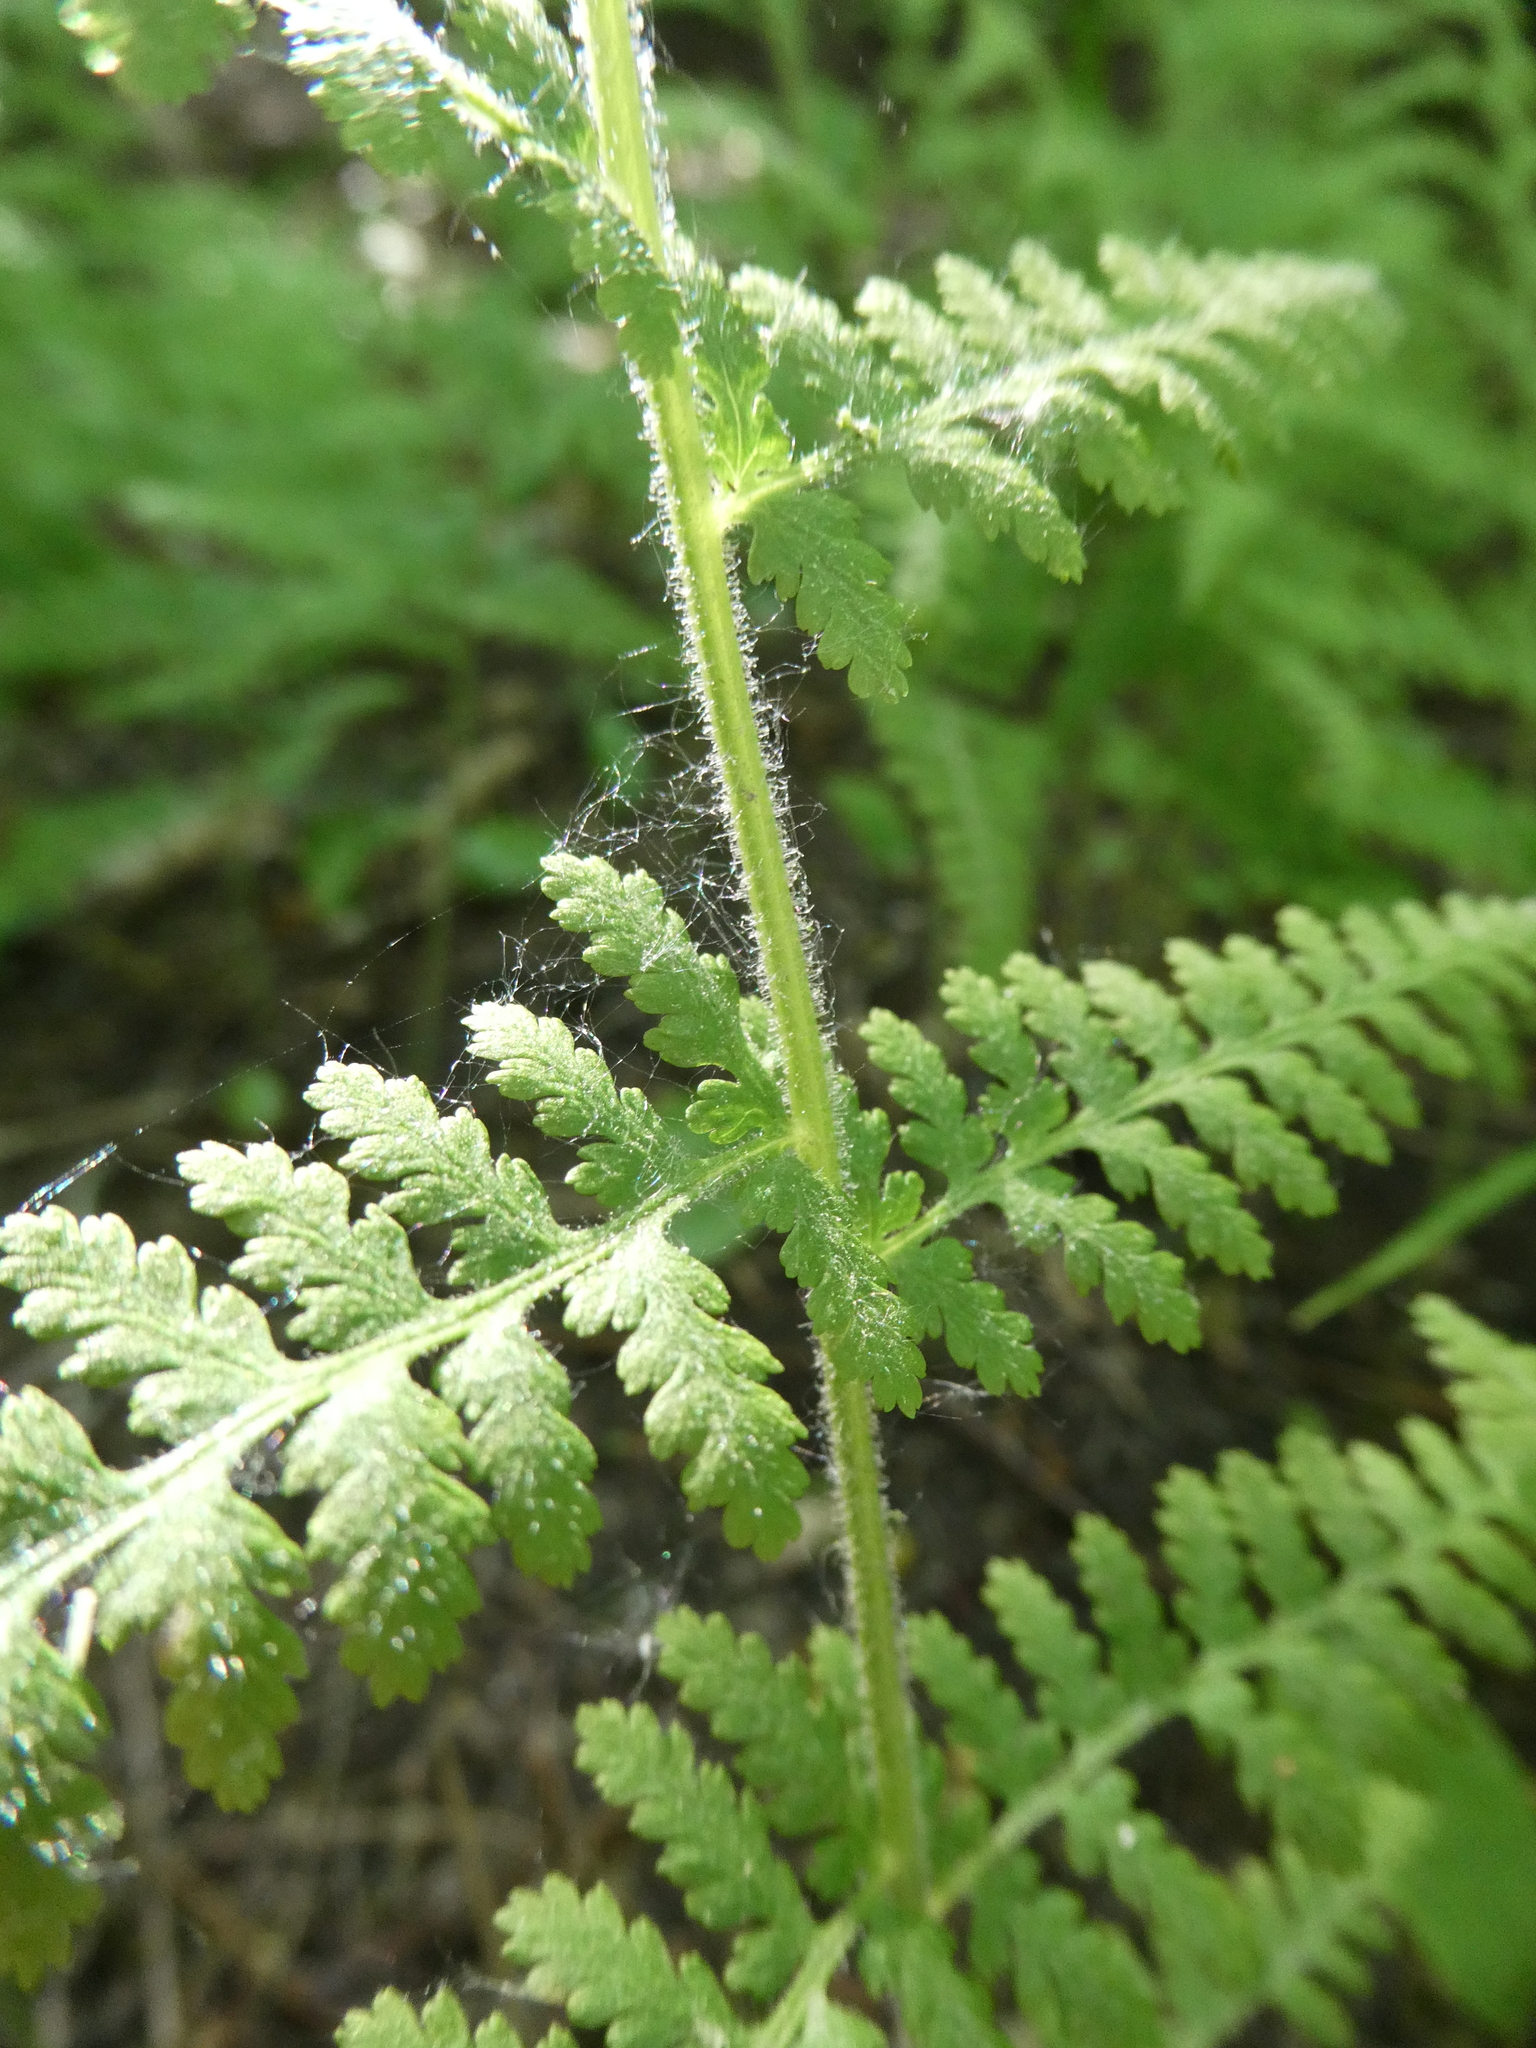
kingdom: Plantae
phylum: Tracheophyta
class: Polypodiopsida
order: Polypodiales
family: Dennstaedtiaceae
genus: Sitobolium
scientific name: Sitobolium punctilobum
